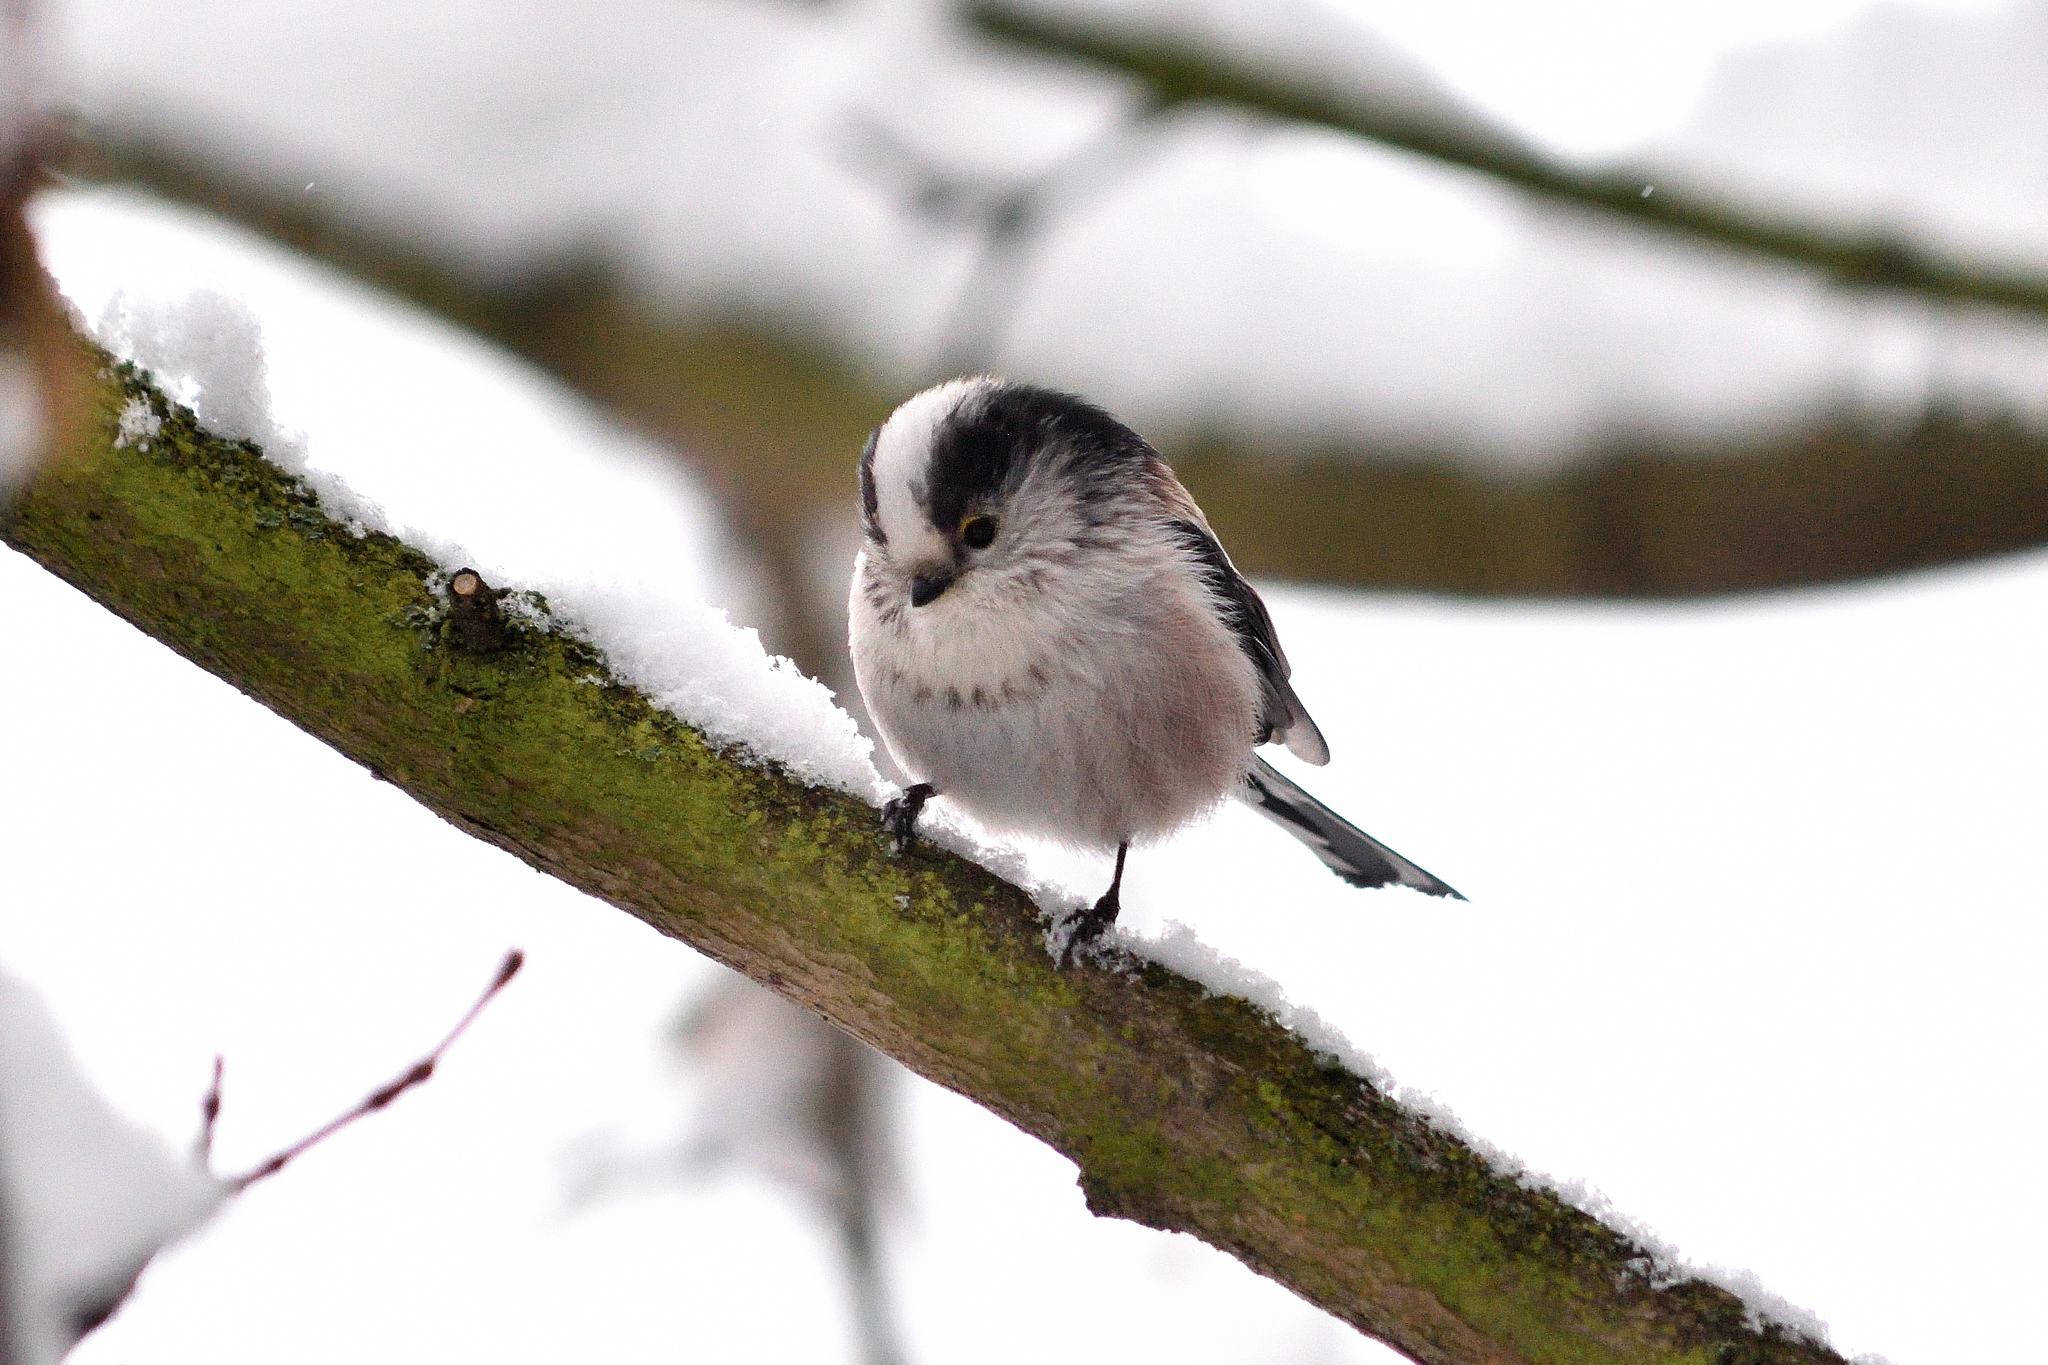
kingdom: Animalia
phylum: Chordata
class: Aves
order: Passeriformes
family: Aegithalidae
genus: Aegithalos
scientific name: Aegithalos caudatus
